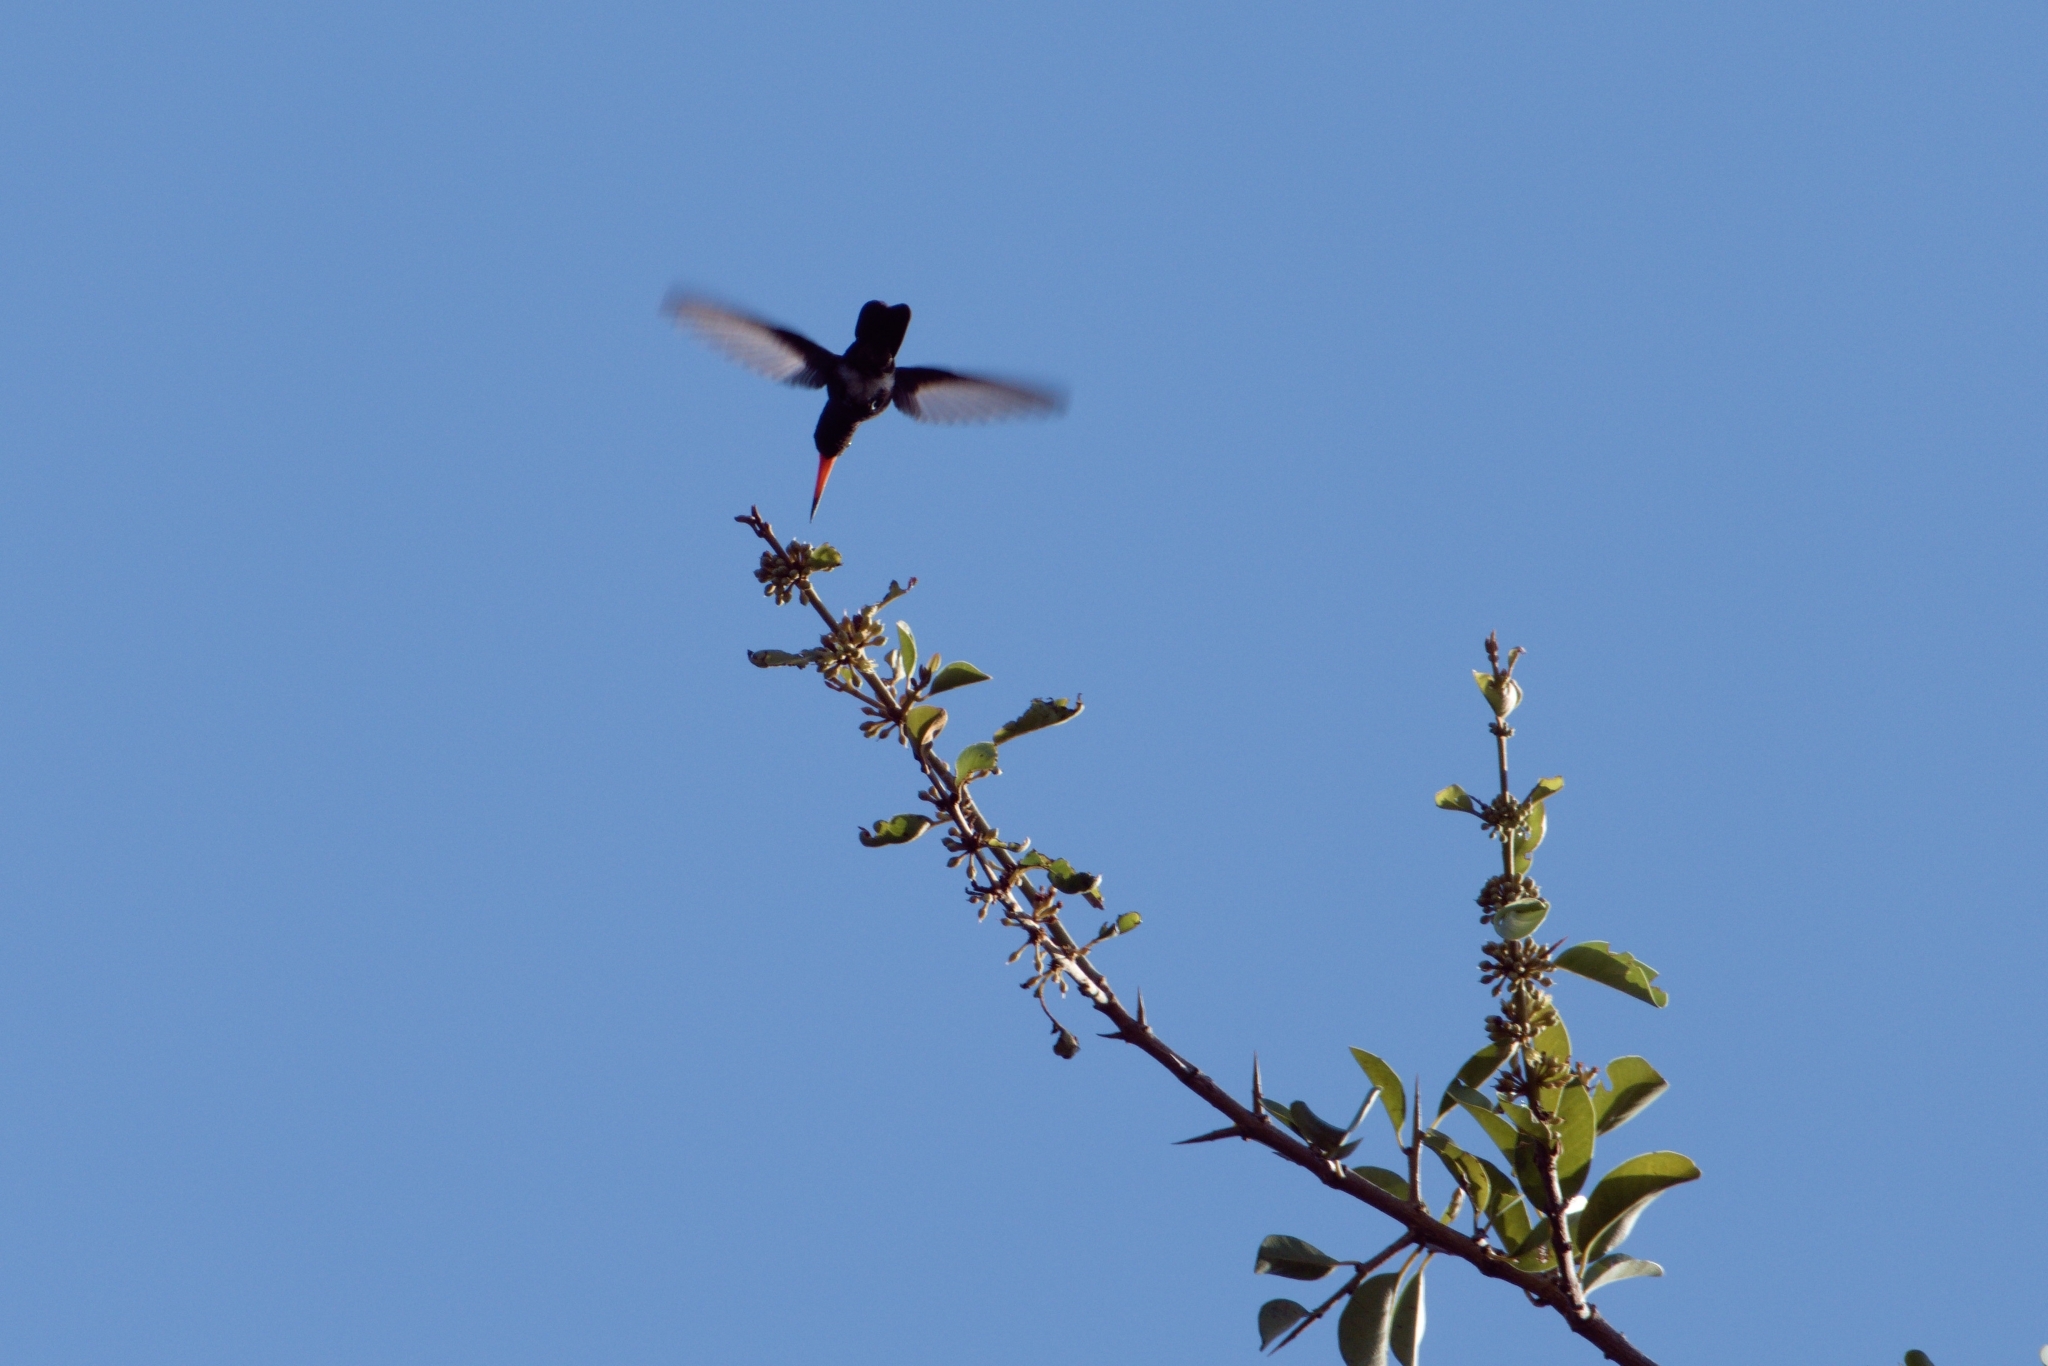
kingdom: Animalia
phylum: Chordata
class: Aves
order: Apodiformes
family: Trochilidae
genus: Cynanthus
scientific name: Cynanthus doubledayi
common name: Doubleday's hummingbird
